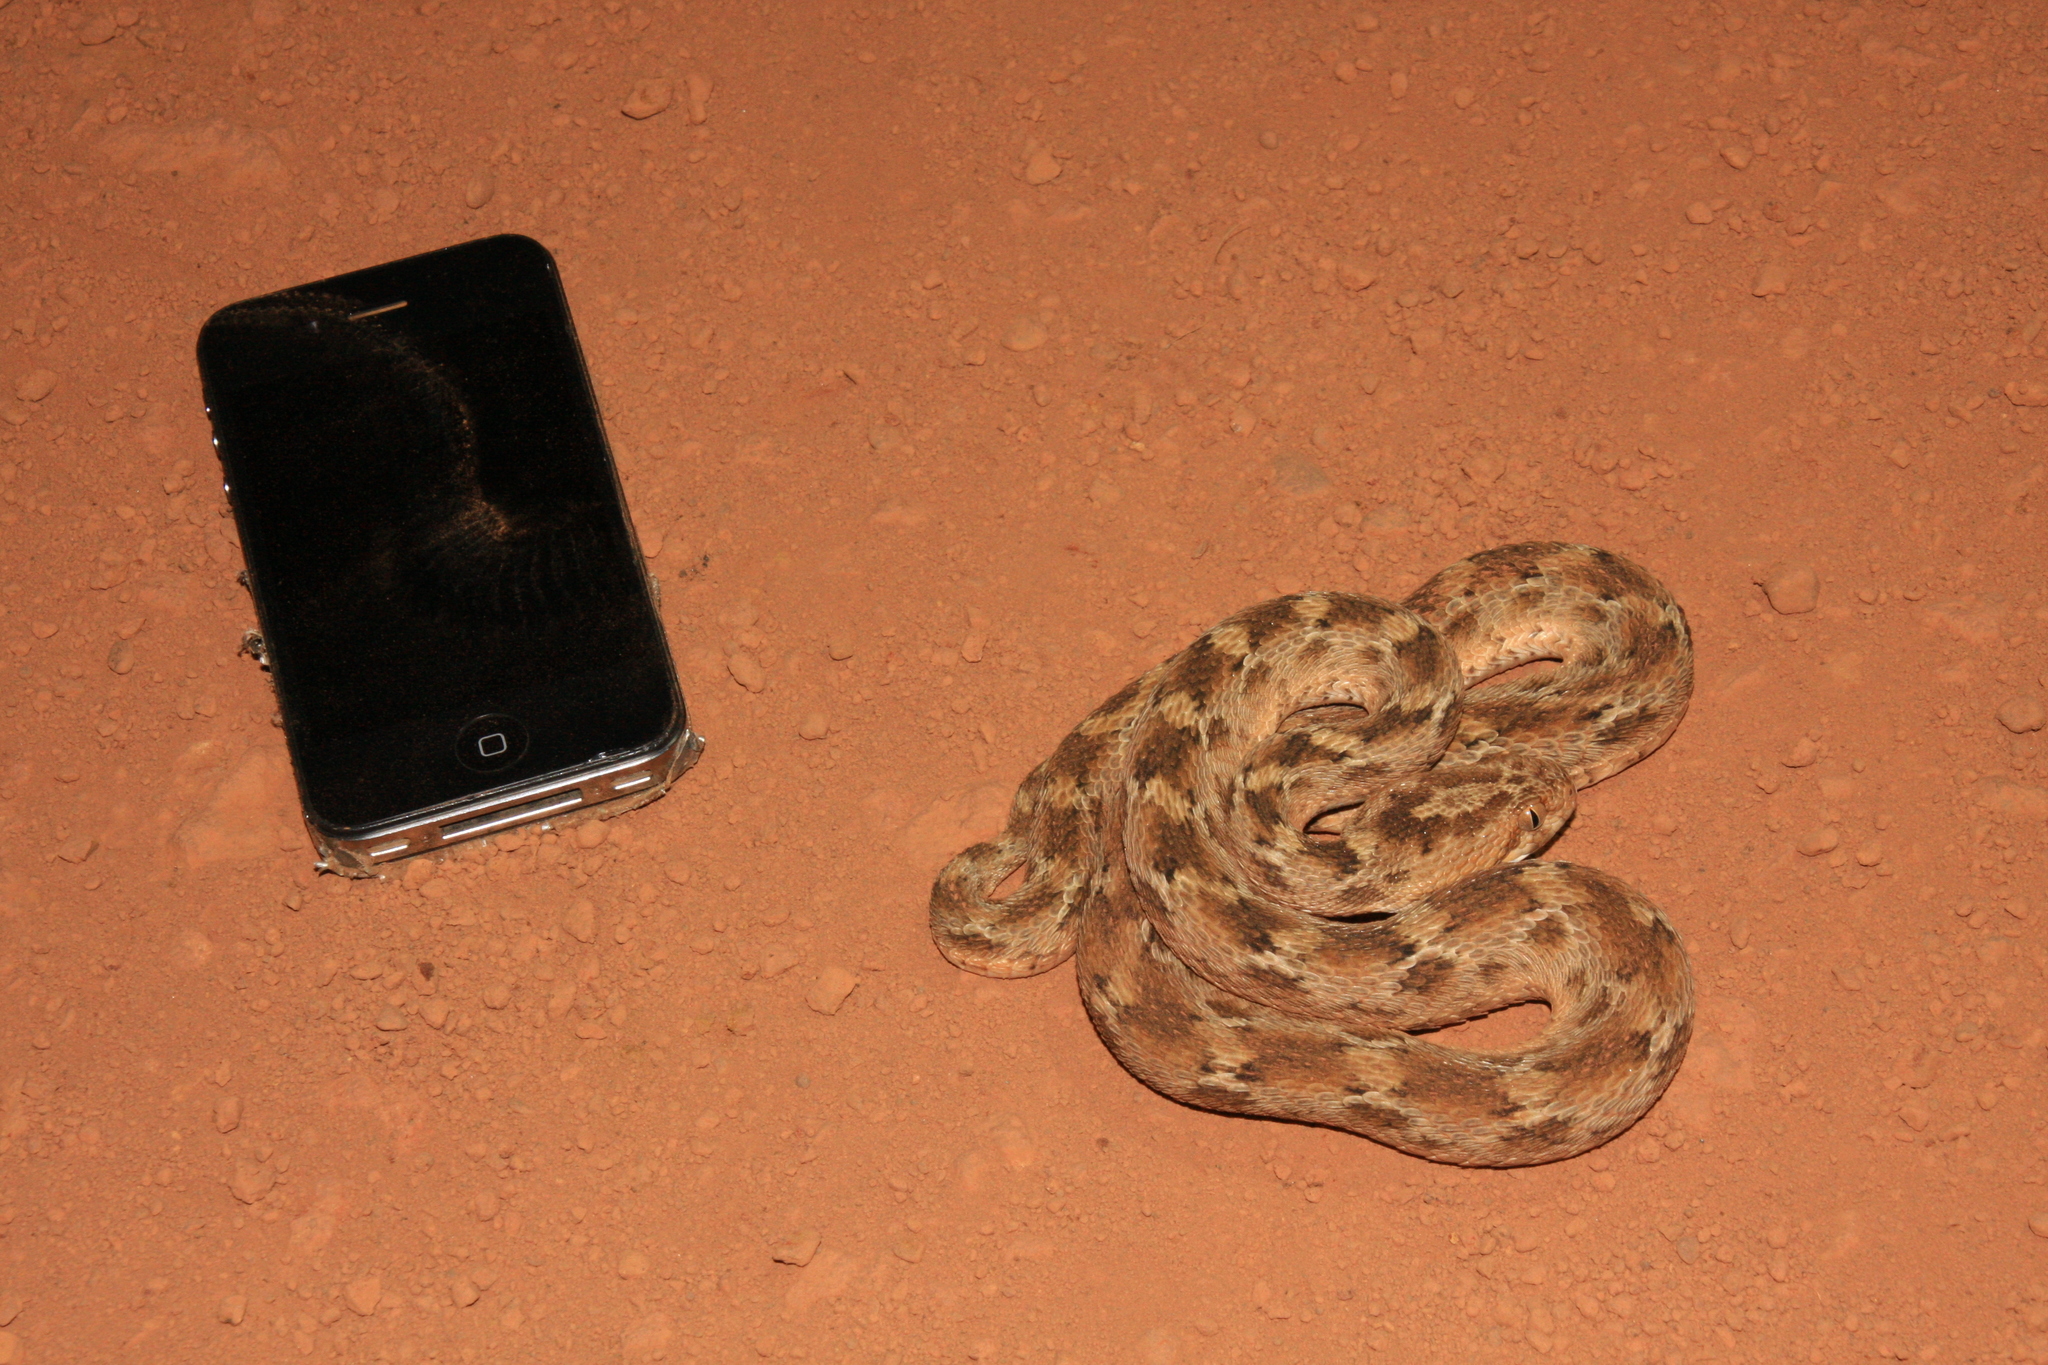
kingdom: Animalia
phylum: Chordata
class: Squamata
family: Viperidae
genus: Echis
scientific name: Echis leucogaster
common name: White-bellied carpet viper
